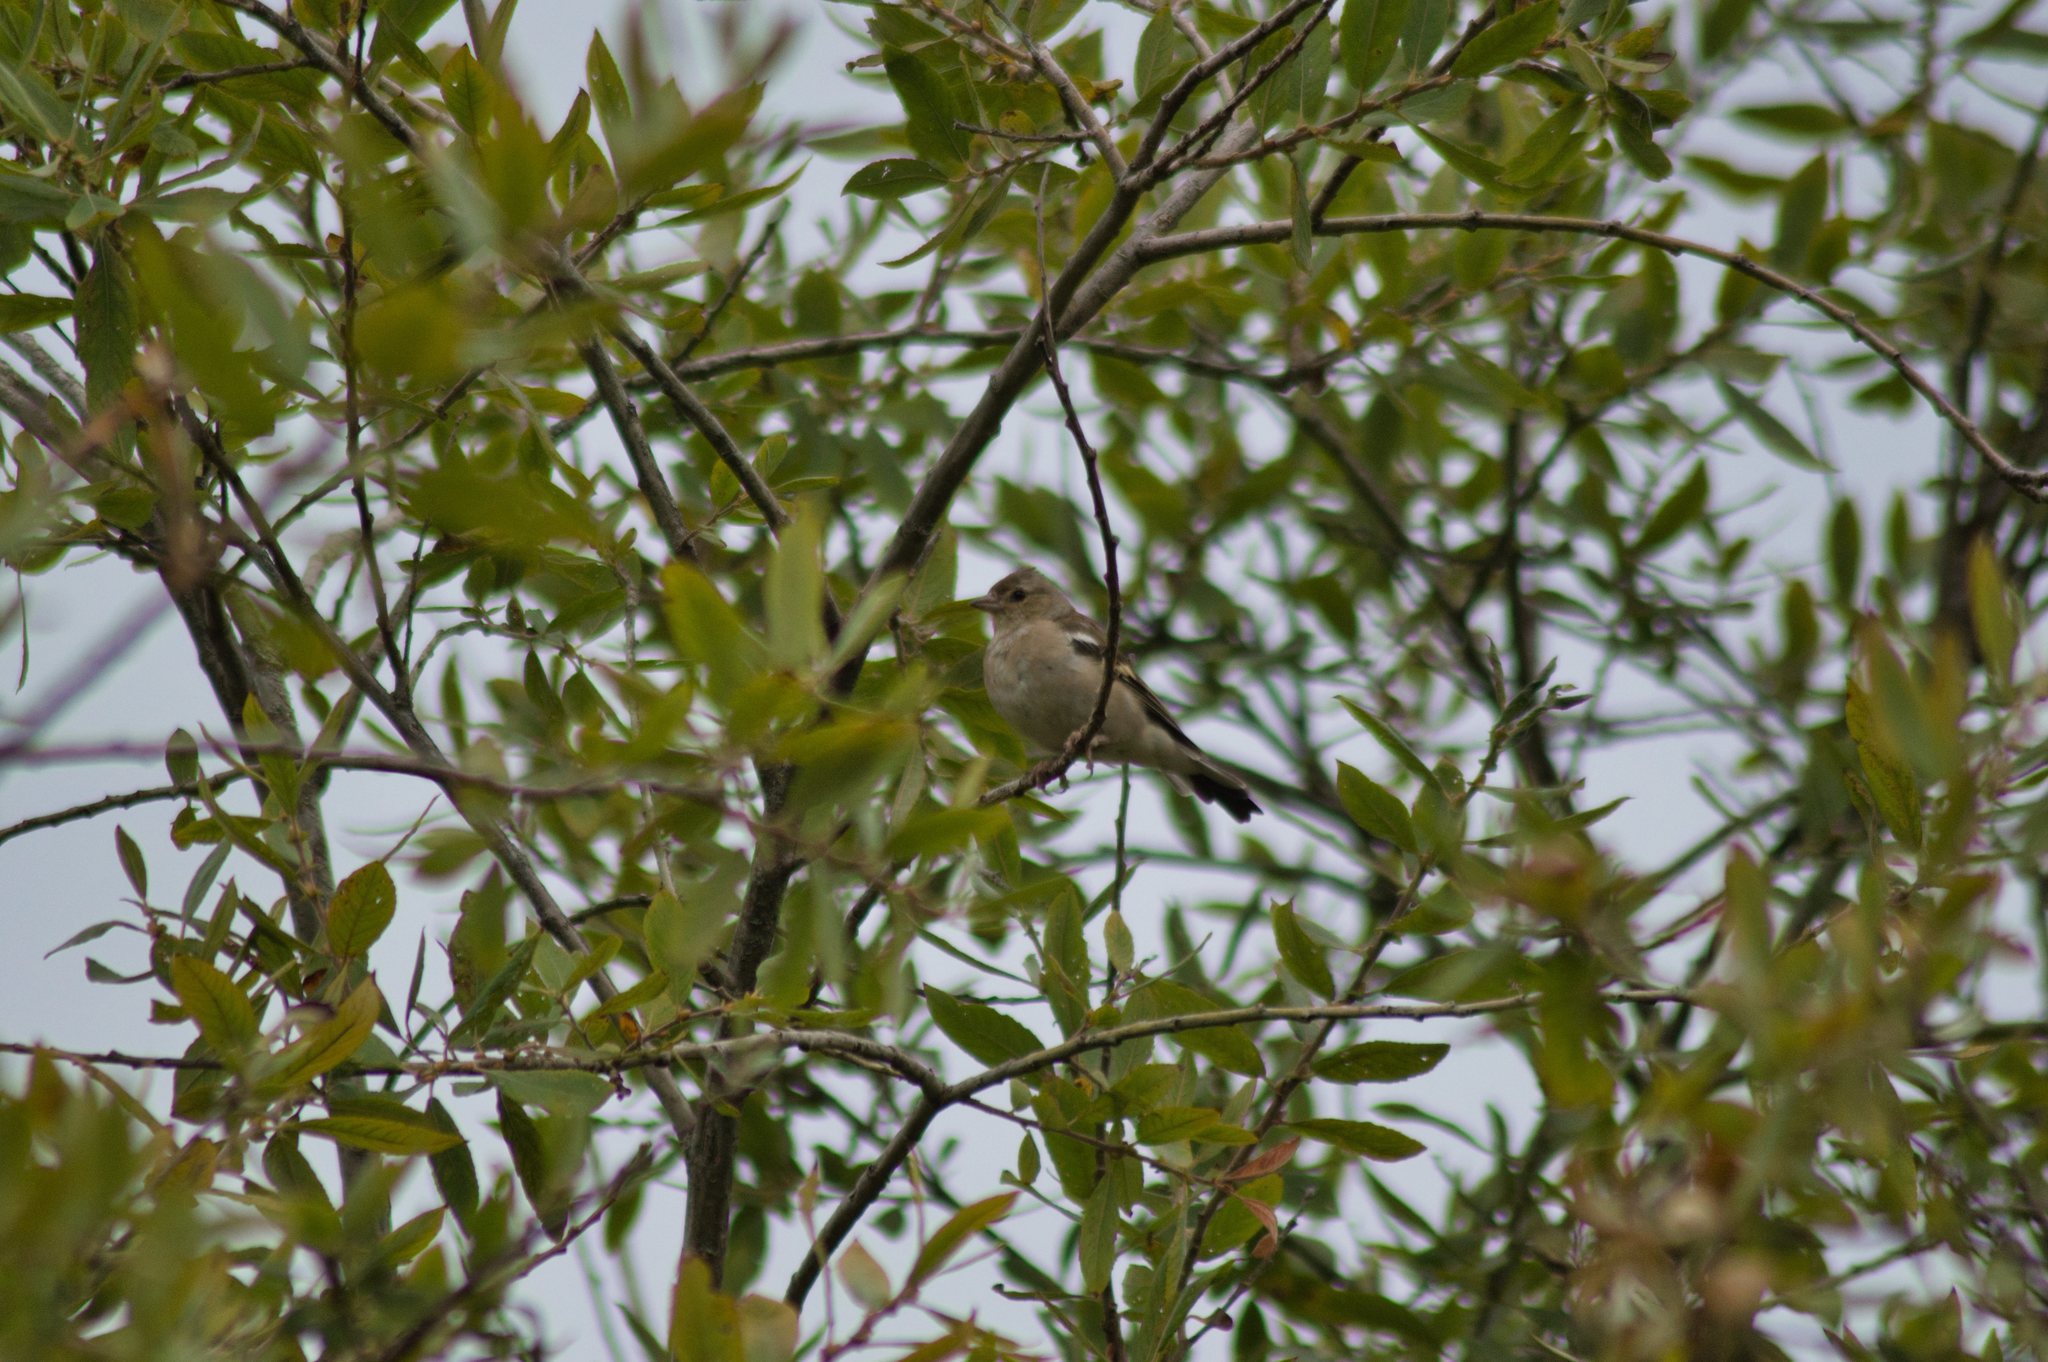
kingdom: Animalia
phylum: Chordata
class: Aves
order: Passeriformes
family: Fringillidae
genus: Fringilla
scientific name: Fringilla coelebs
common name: Common chaffinch
